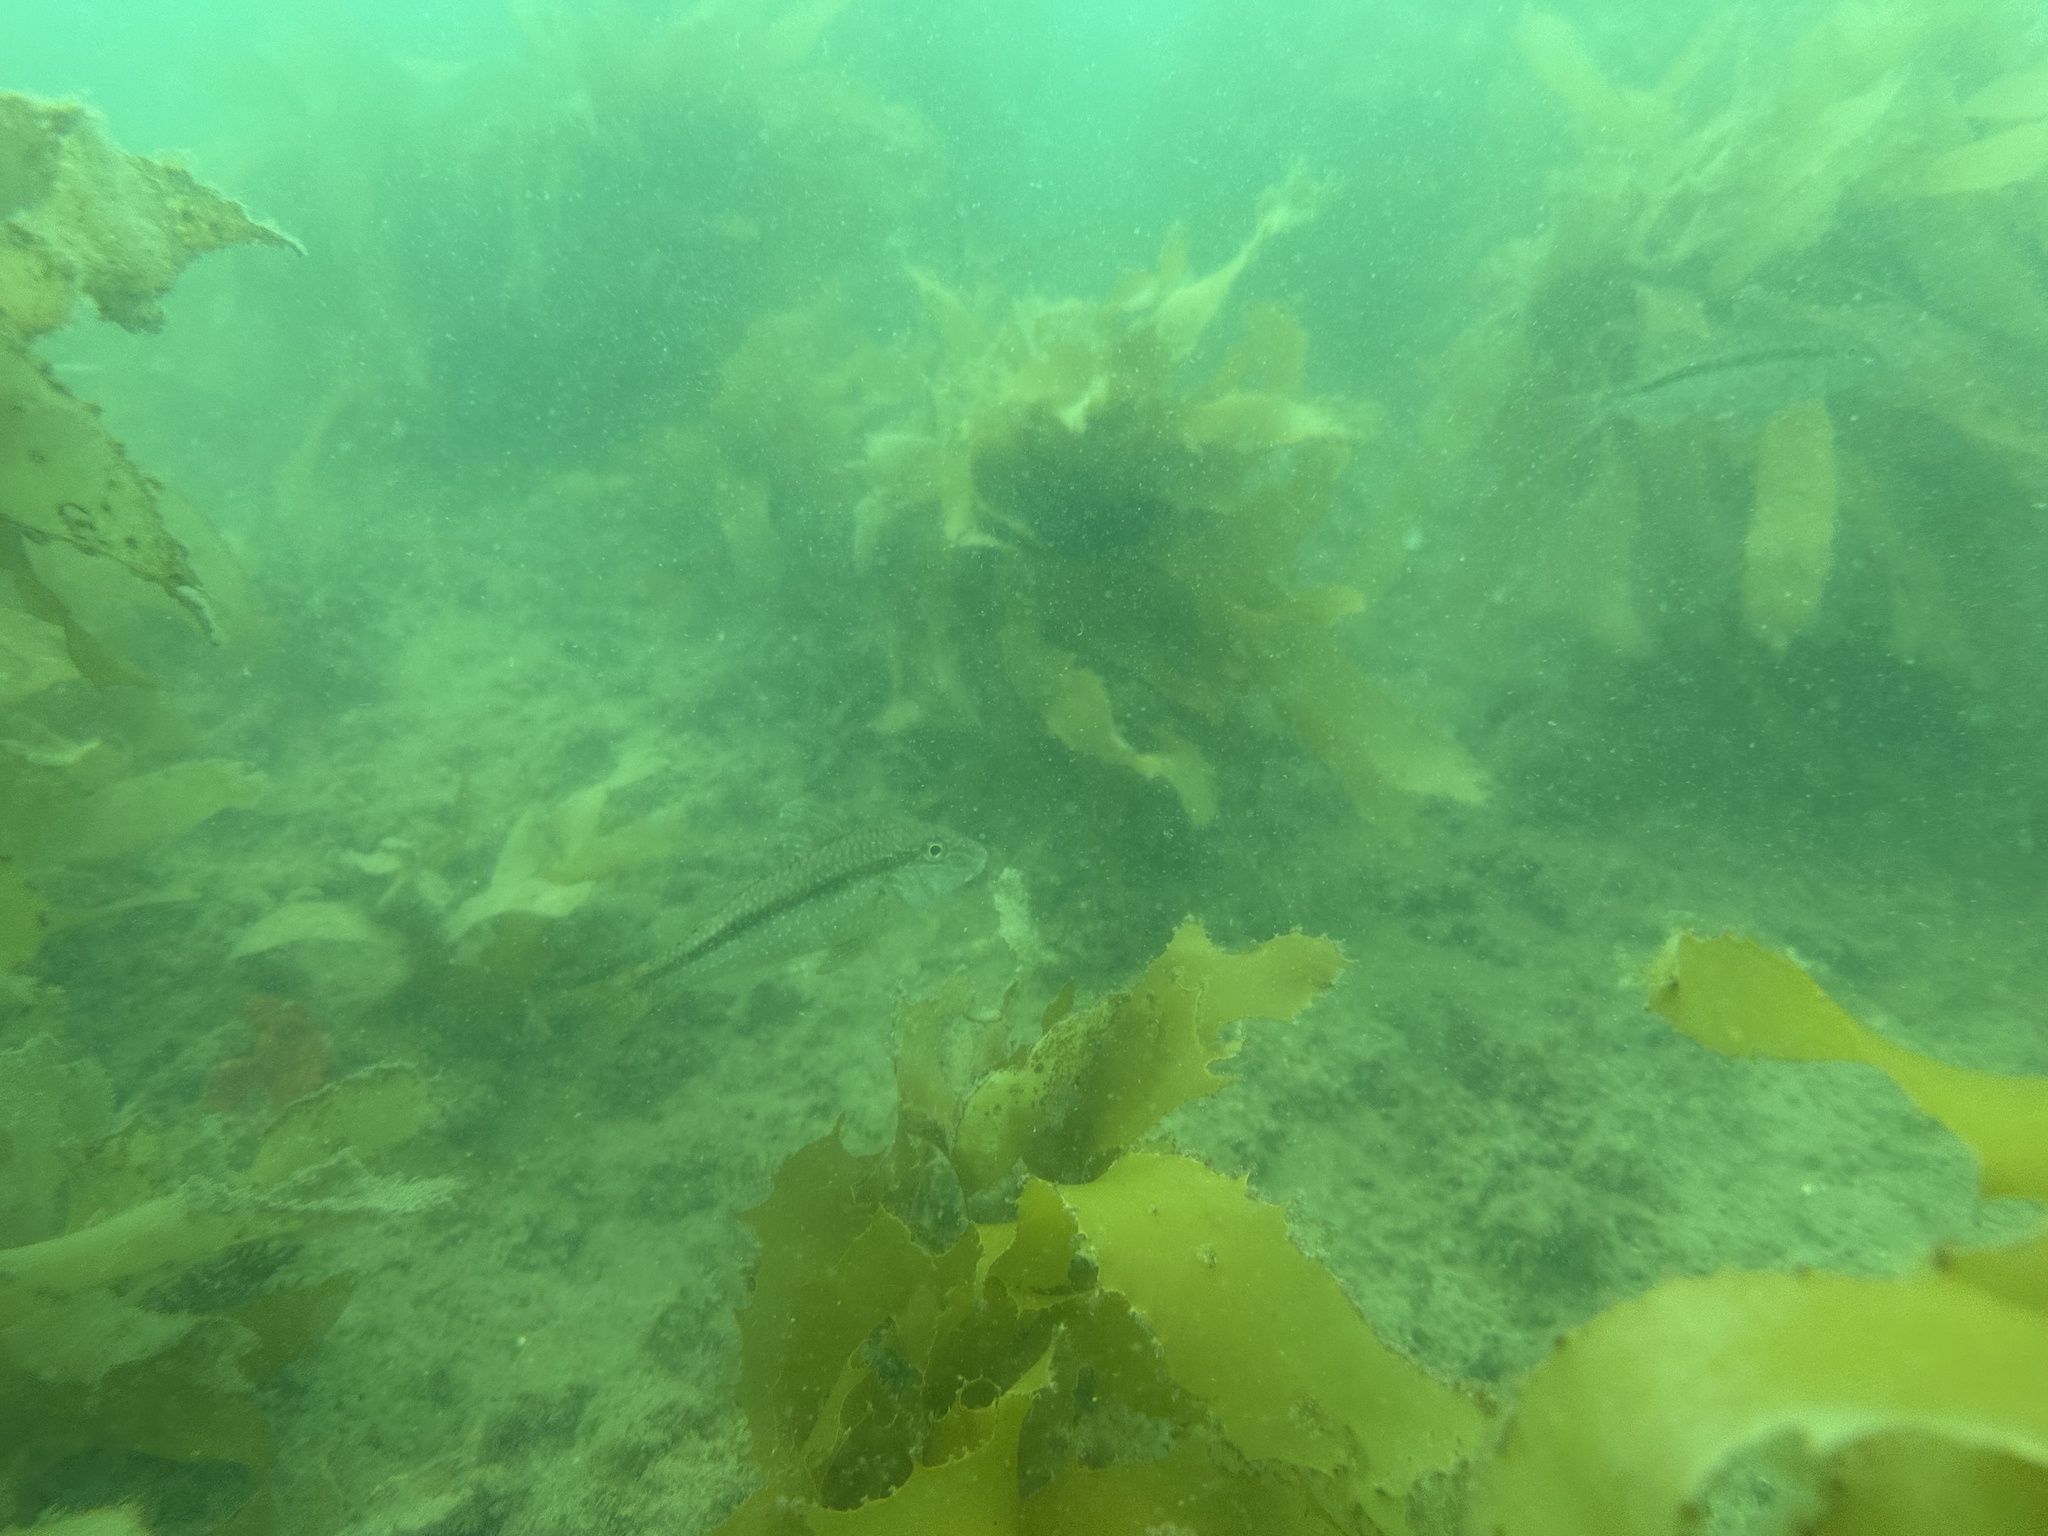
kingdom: Animalia
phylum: Chordata
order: Perciformes
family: Mullidae
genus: Upeneichthys
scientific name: Upeneichthys lineatus
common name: Red mullet
